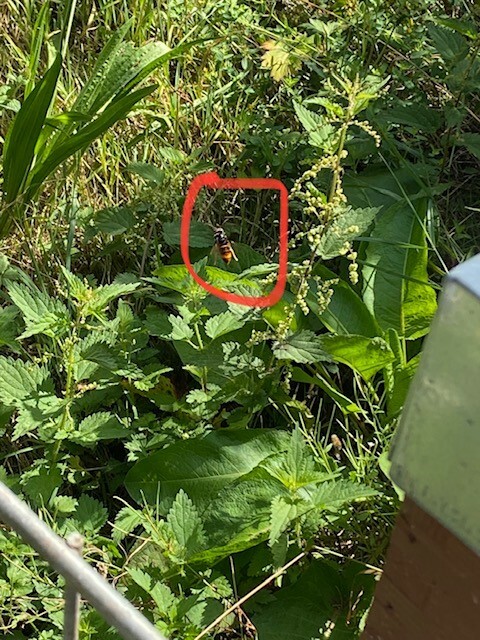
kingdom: Animalia
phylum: Arthropoda
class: Insecta
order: Hymenoptera
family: Vespidae
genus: Vespa
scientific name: Vespa velutina
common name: Asian hornet
